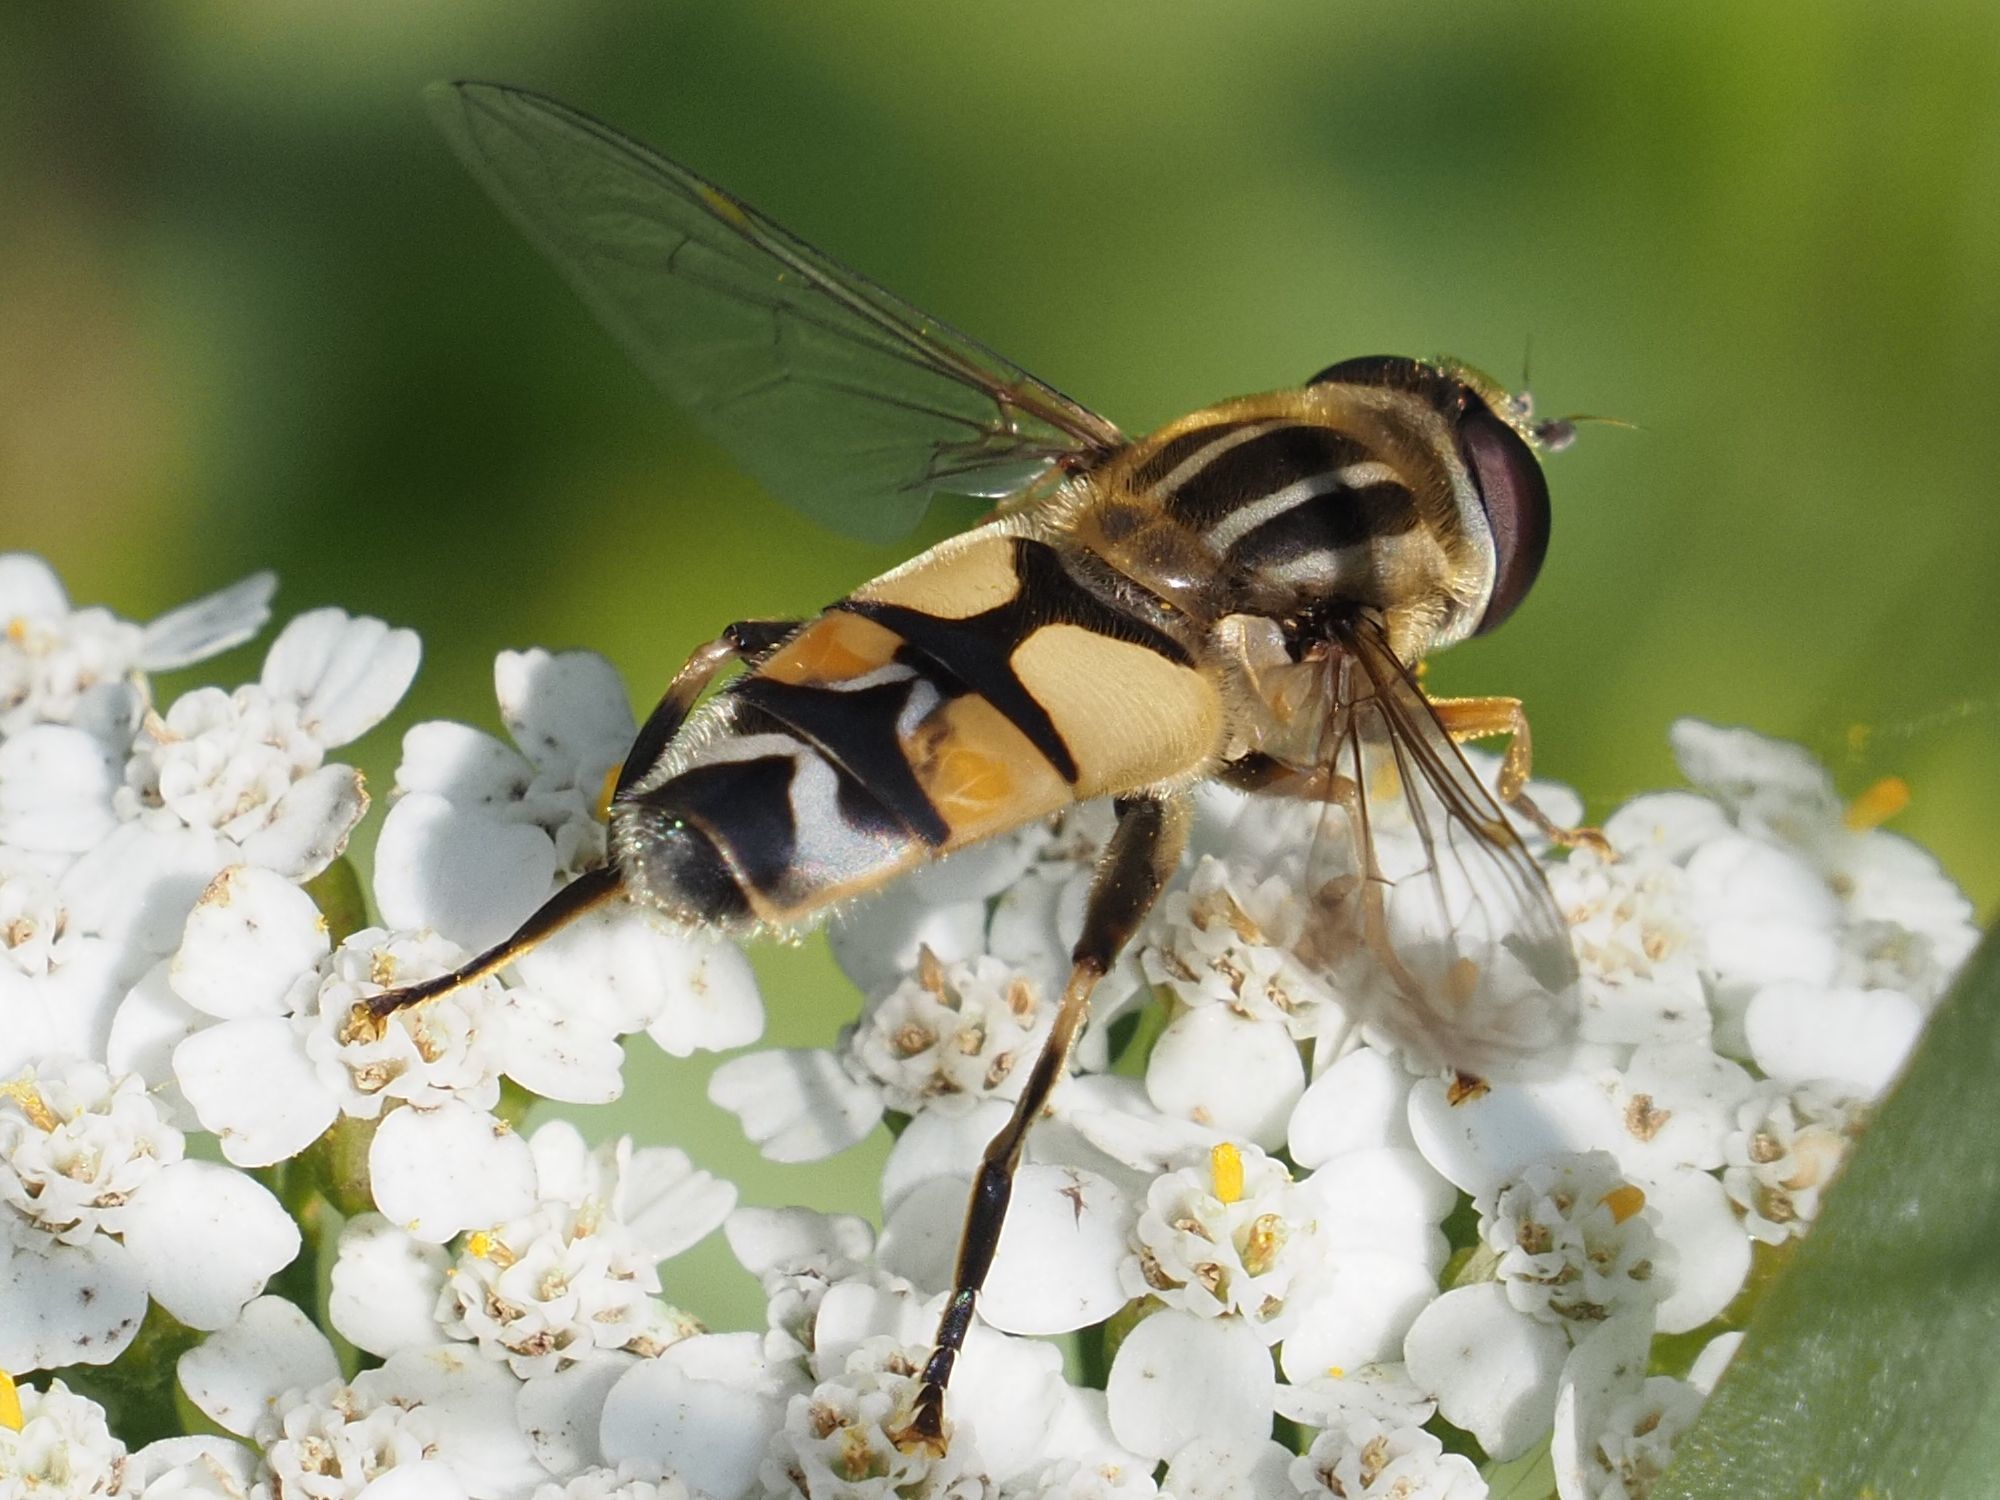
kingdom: Animalia
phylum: Arthropoda
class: Insecta
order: Diptera
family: Syrphidae
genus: Helophilus
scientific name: Helophilus trivittatus
